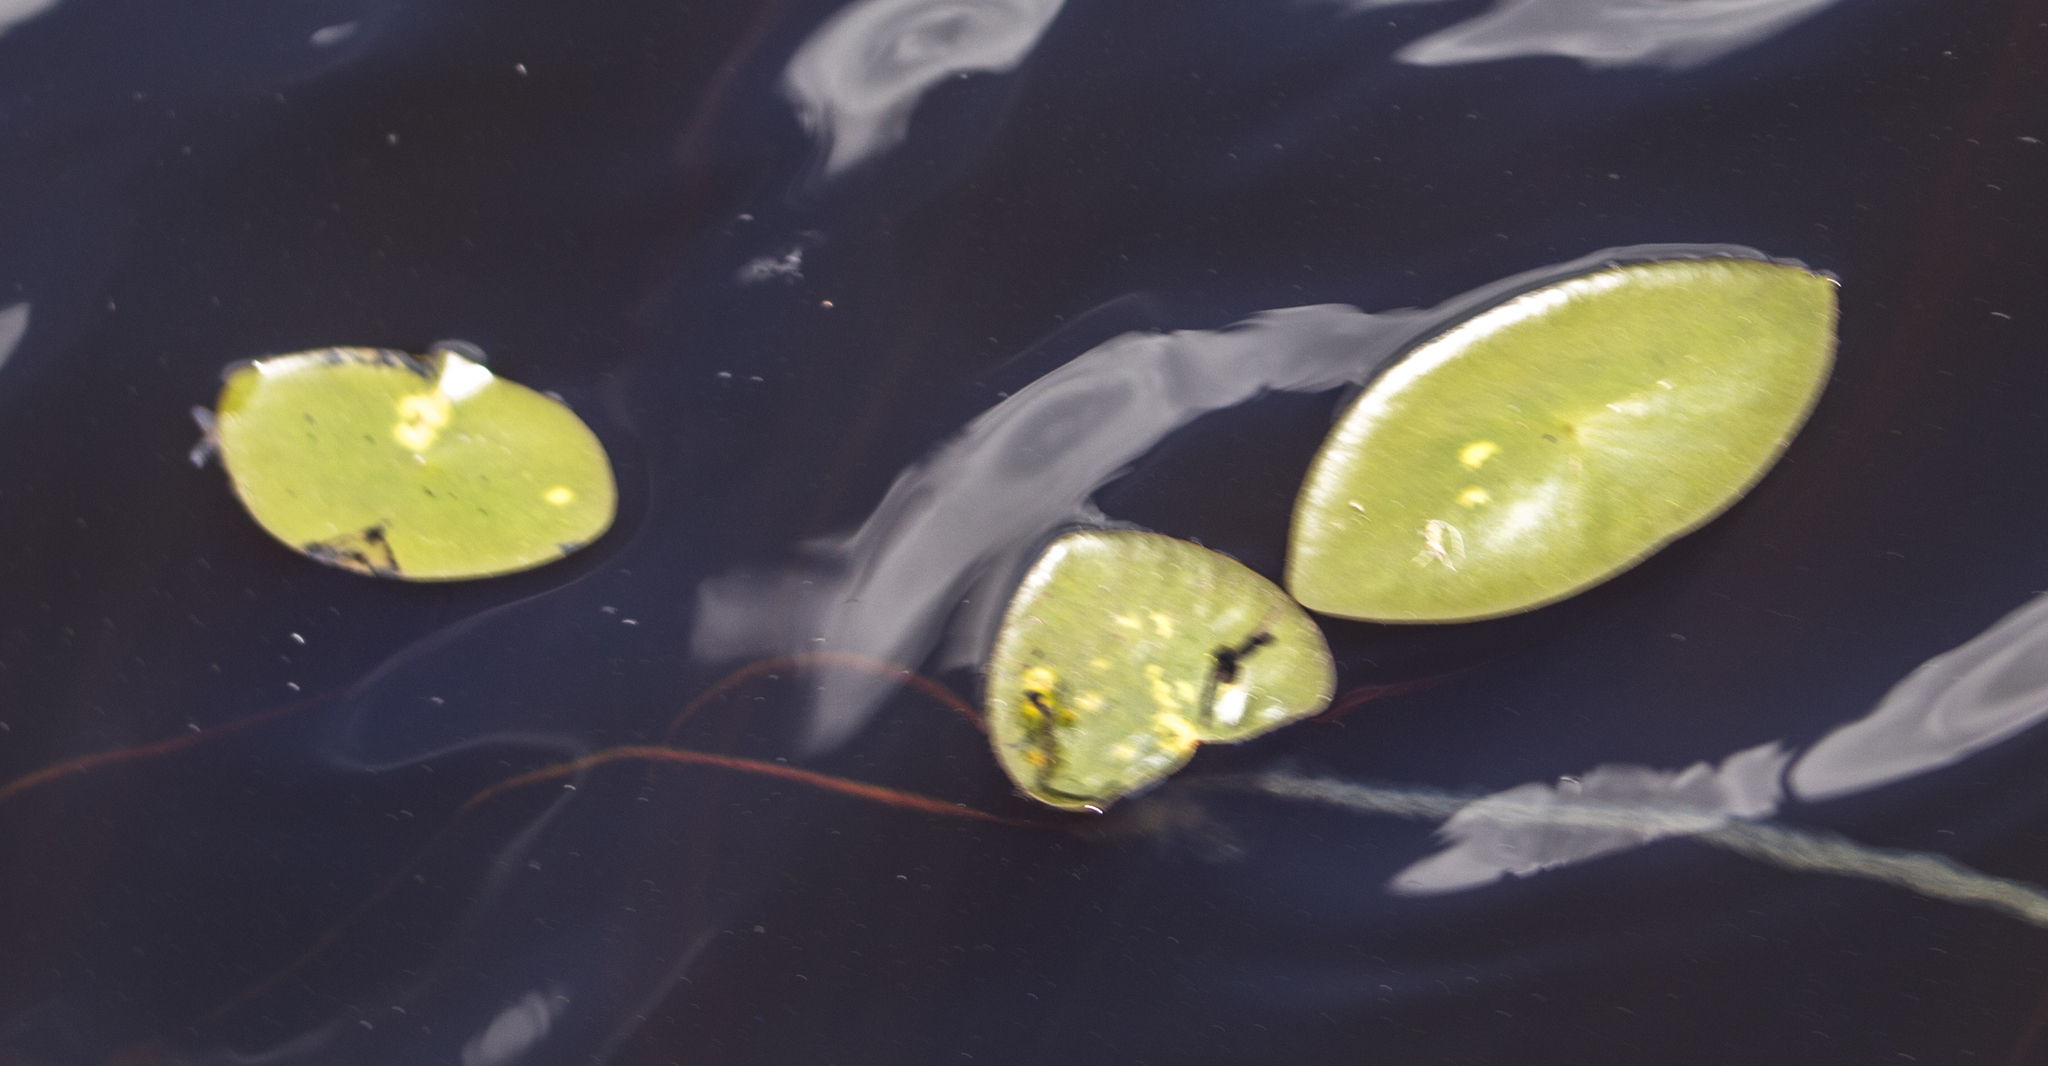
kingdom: Plantae
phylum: Tracheophyta
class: Magnoliopsida
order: Nymphaeales
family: Cabombaceae
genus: Brasenia
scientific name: Brasenia schreberi
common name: Water-shield
